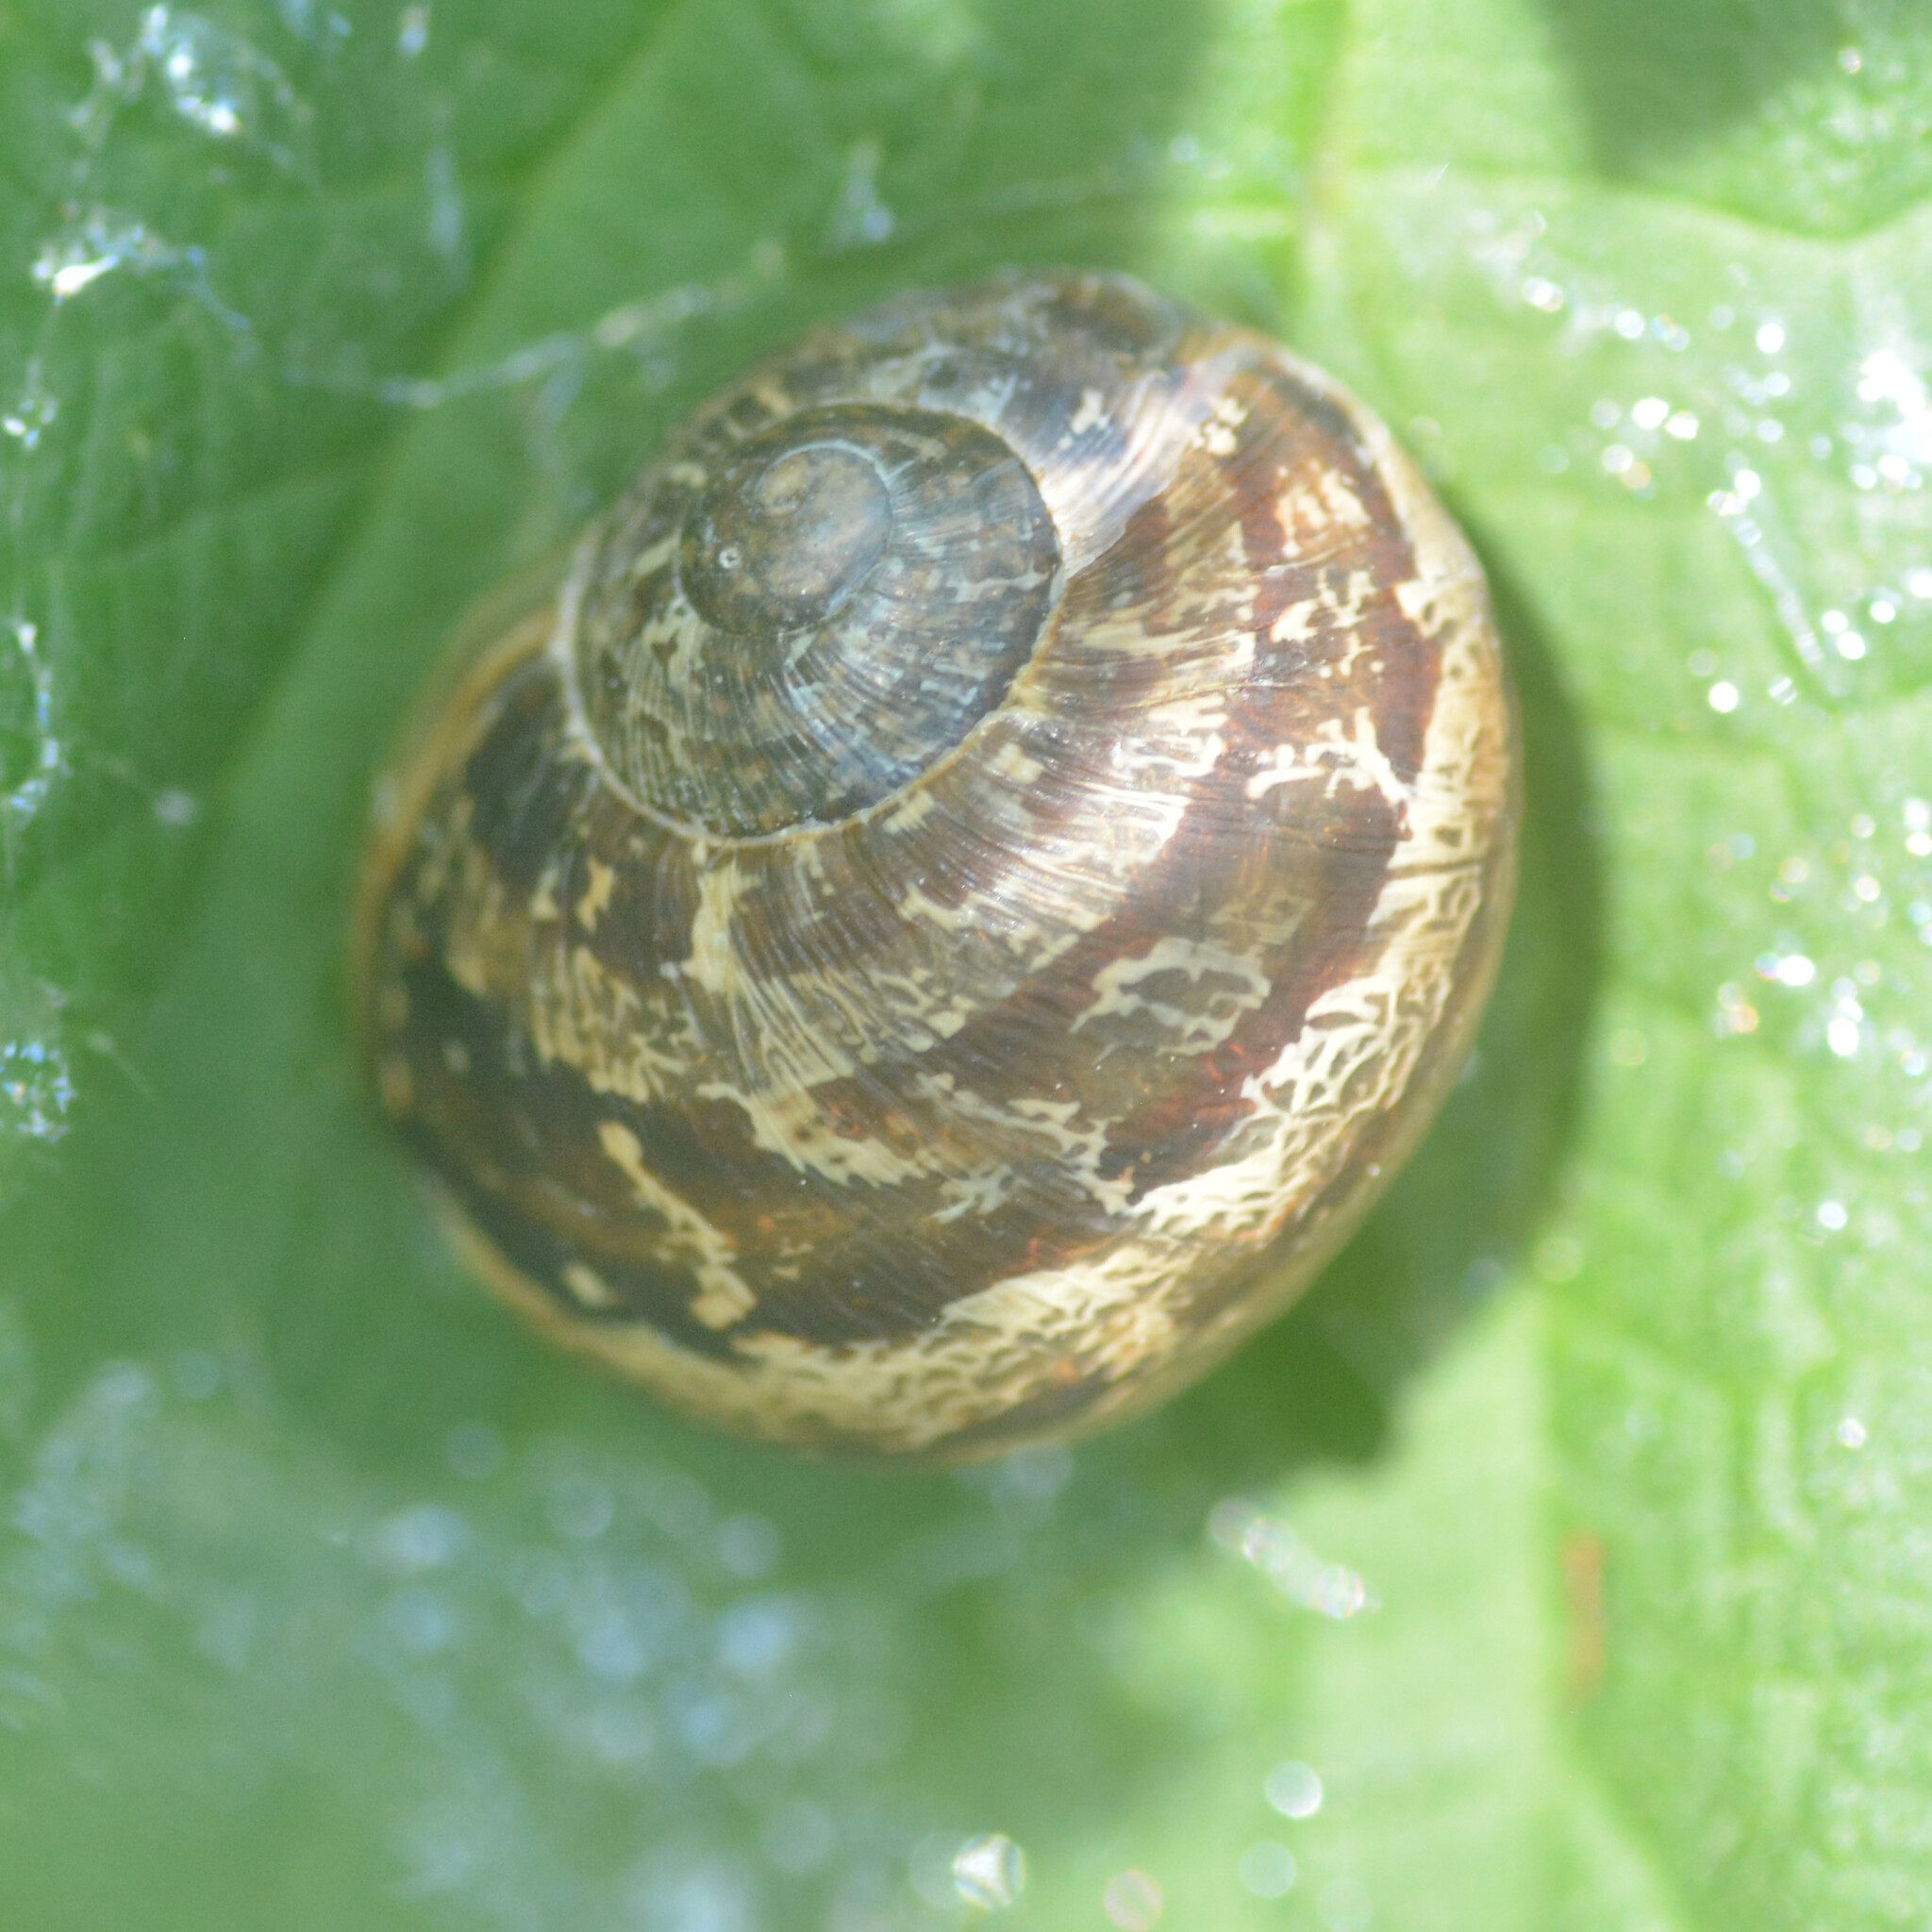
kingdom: Animalia
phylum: Mollusca
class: Gastropoda
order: Stylommatophora
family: Helicidae
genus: Cornu
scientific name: Cornu aspersum
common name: Brown garden snail
